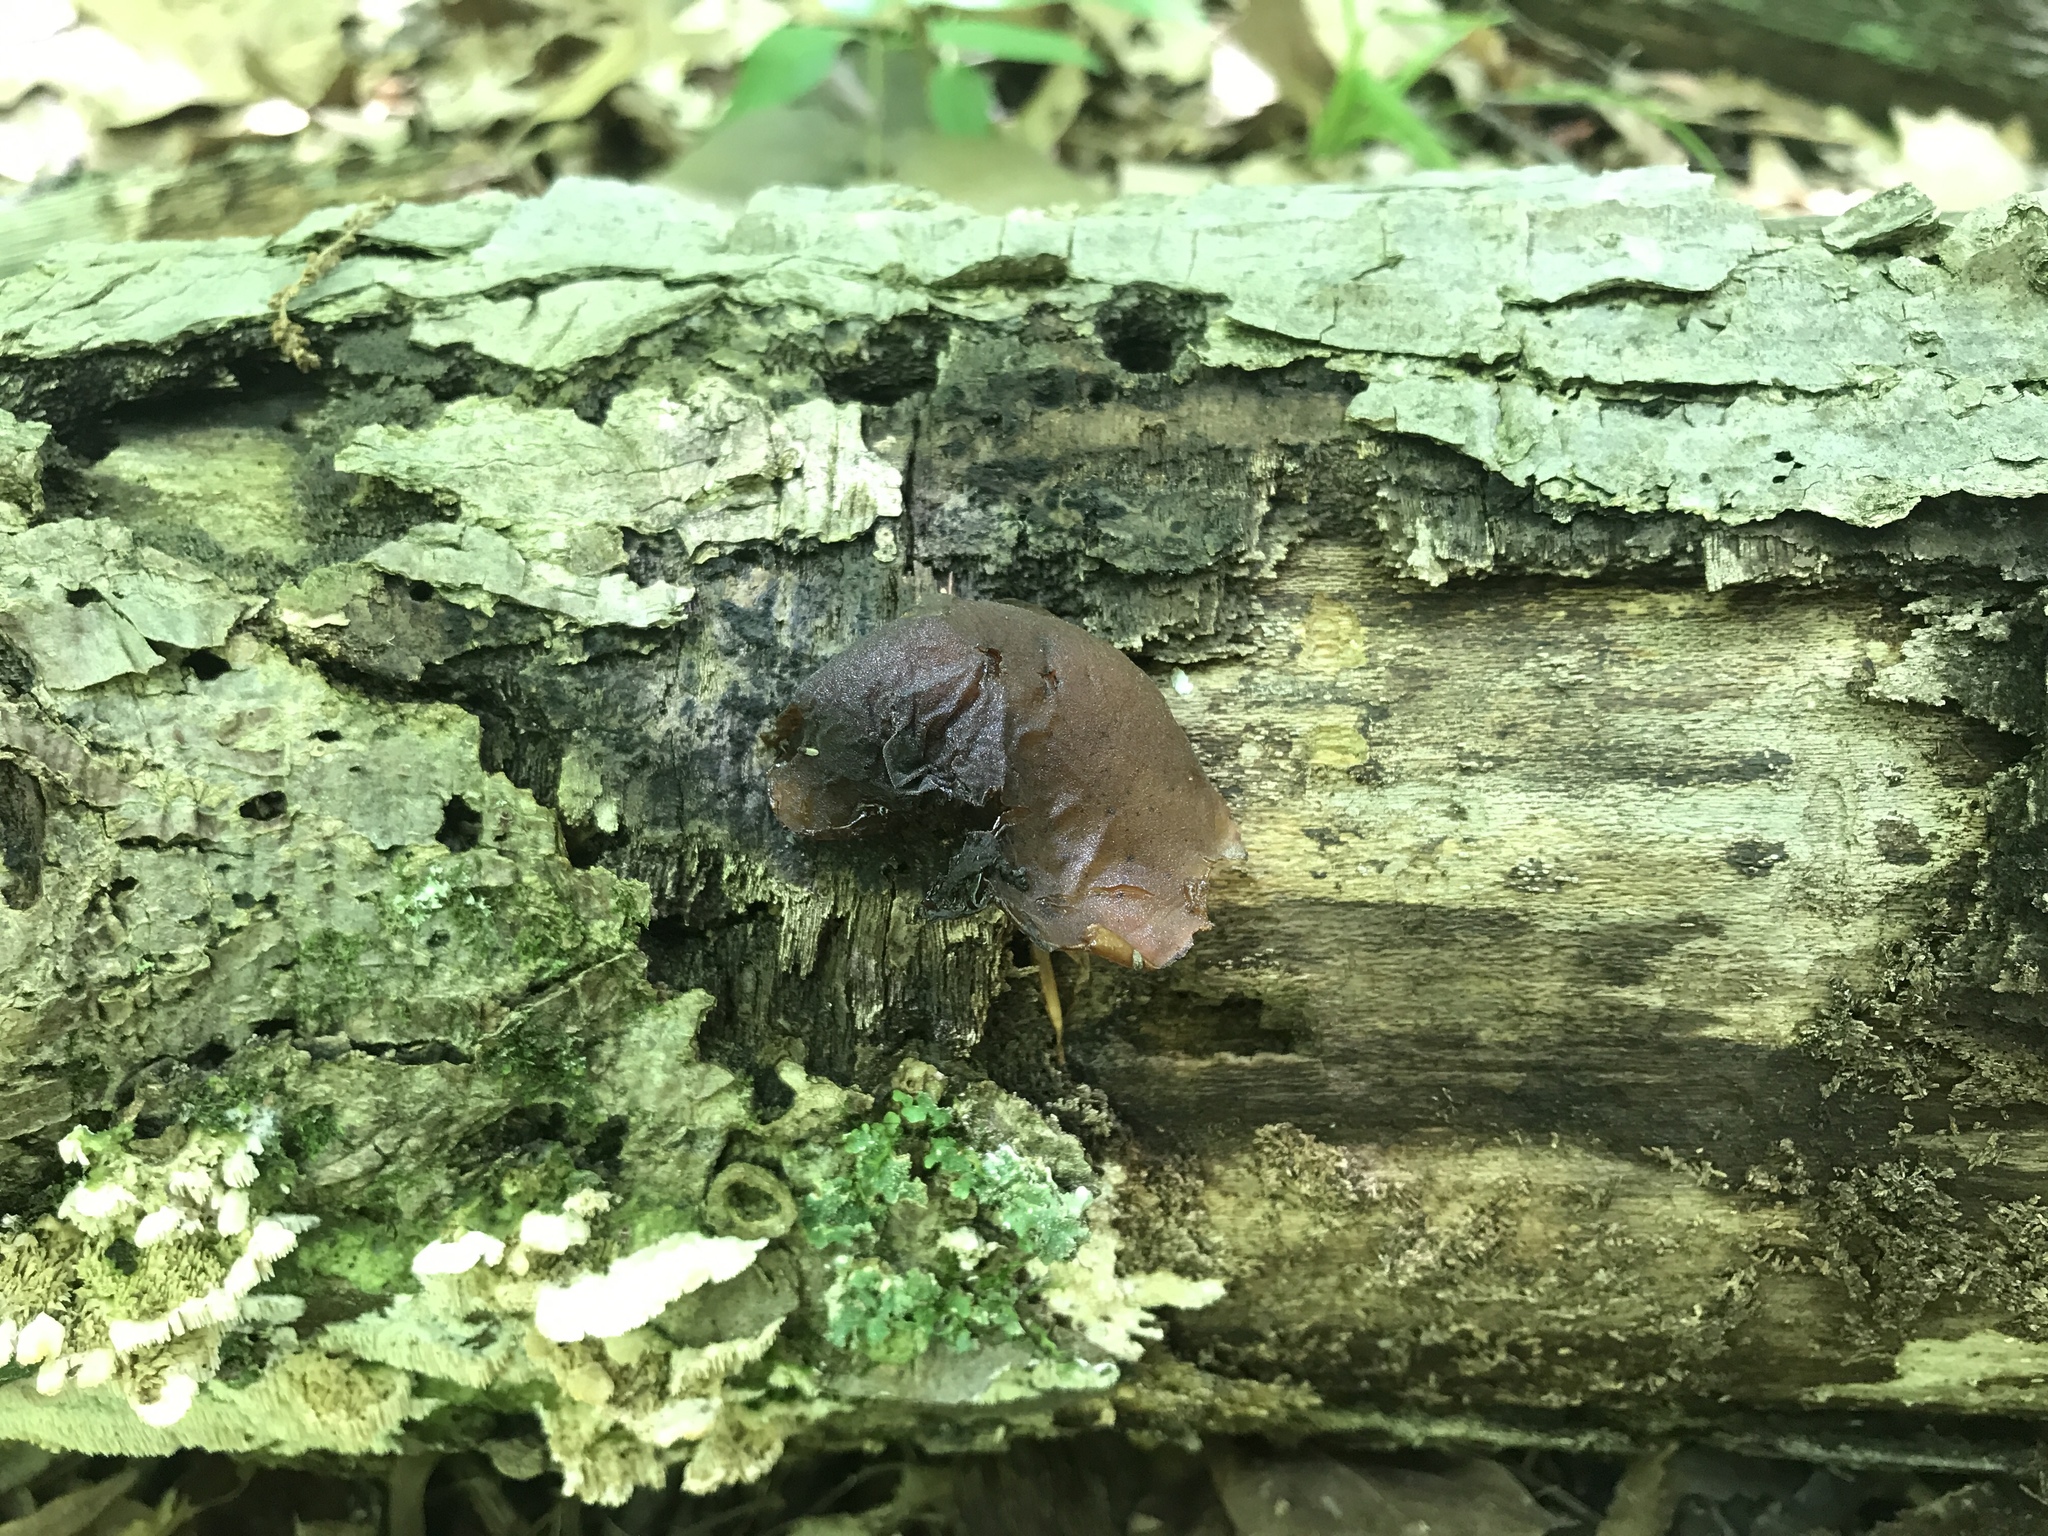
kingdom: Fungi
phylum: Basidiomycota
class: Agaricomycetes
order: Auriculariales
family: Auriculariaceae
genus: Auricularia
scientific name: Auricularia angiospermarum
